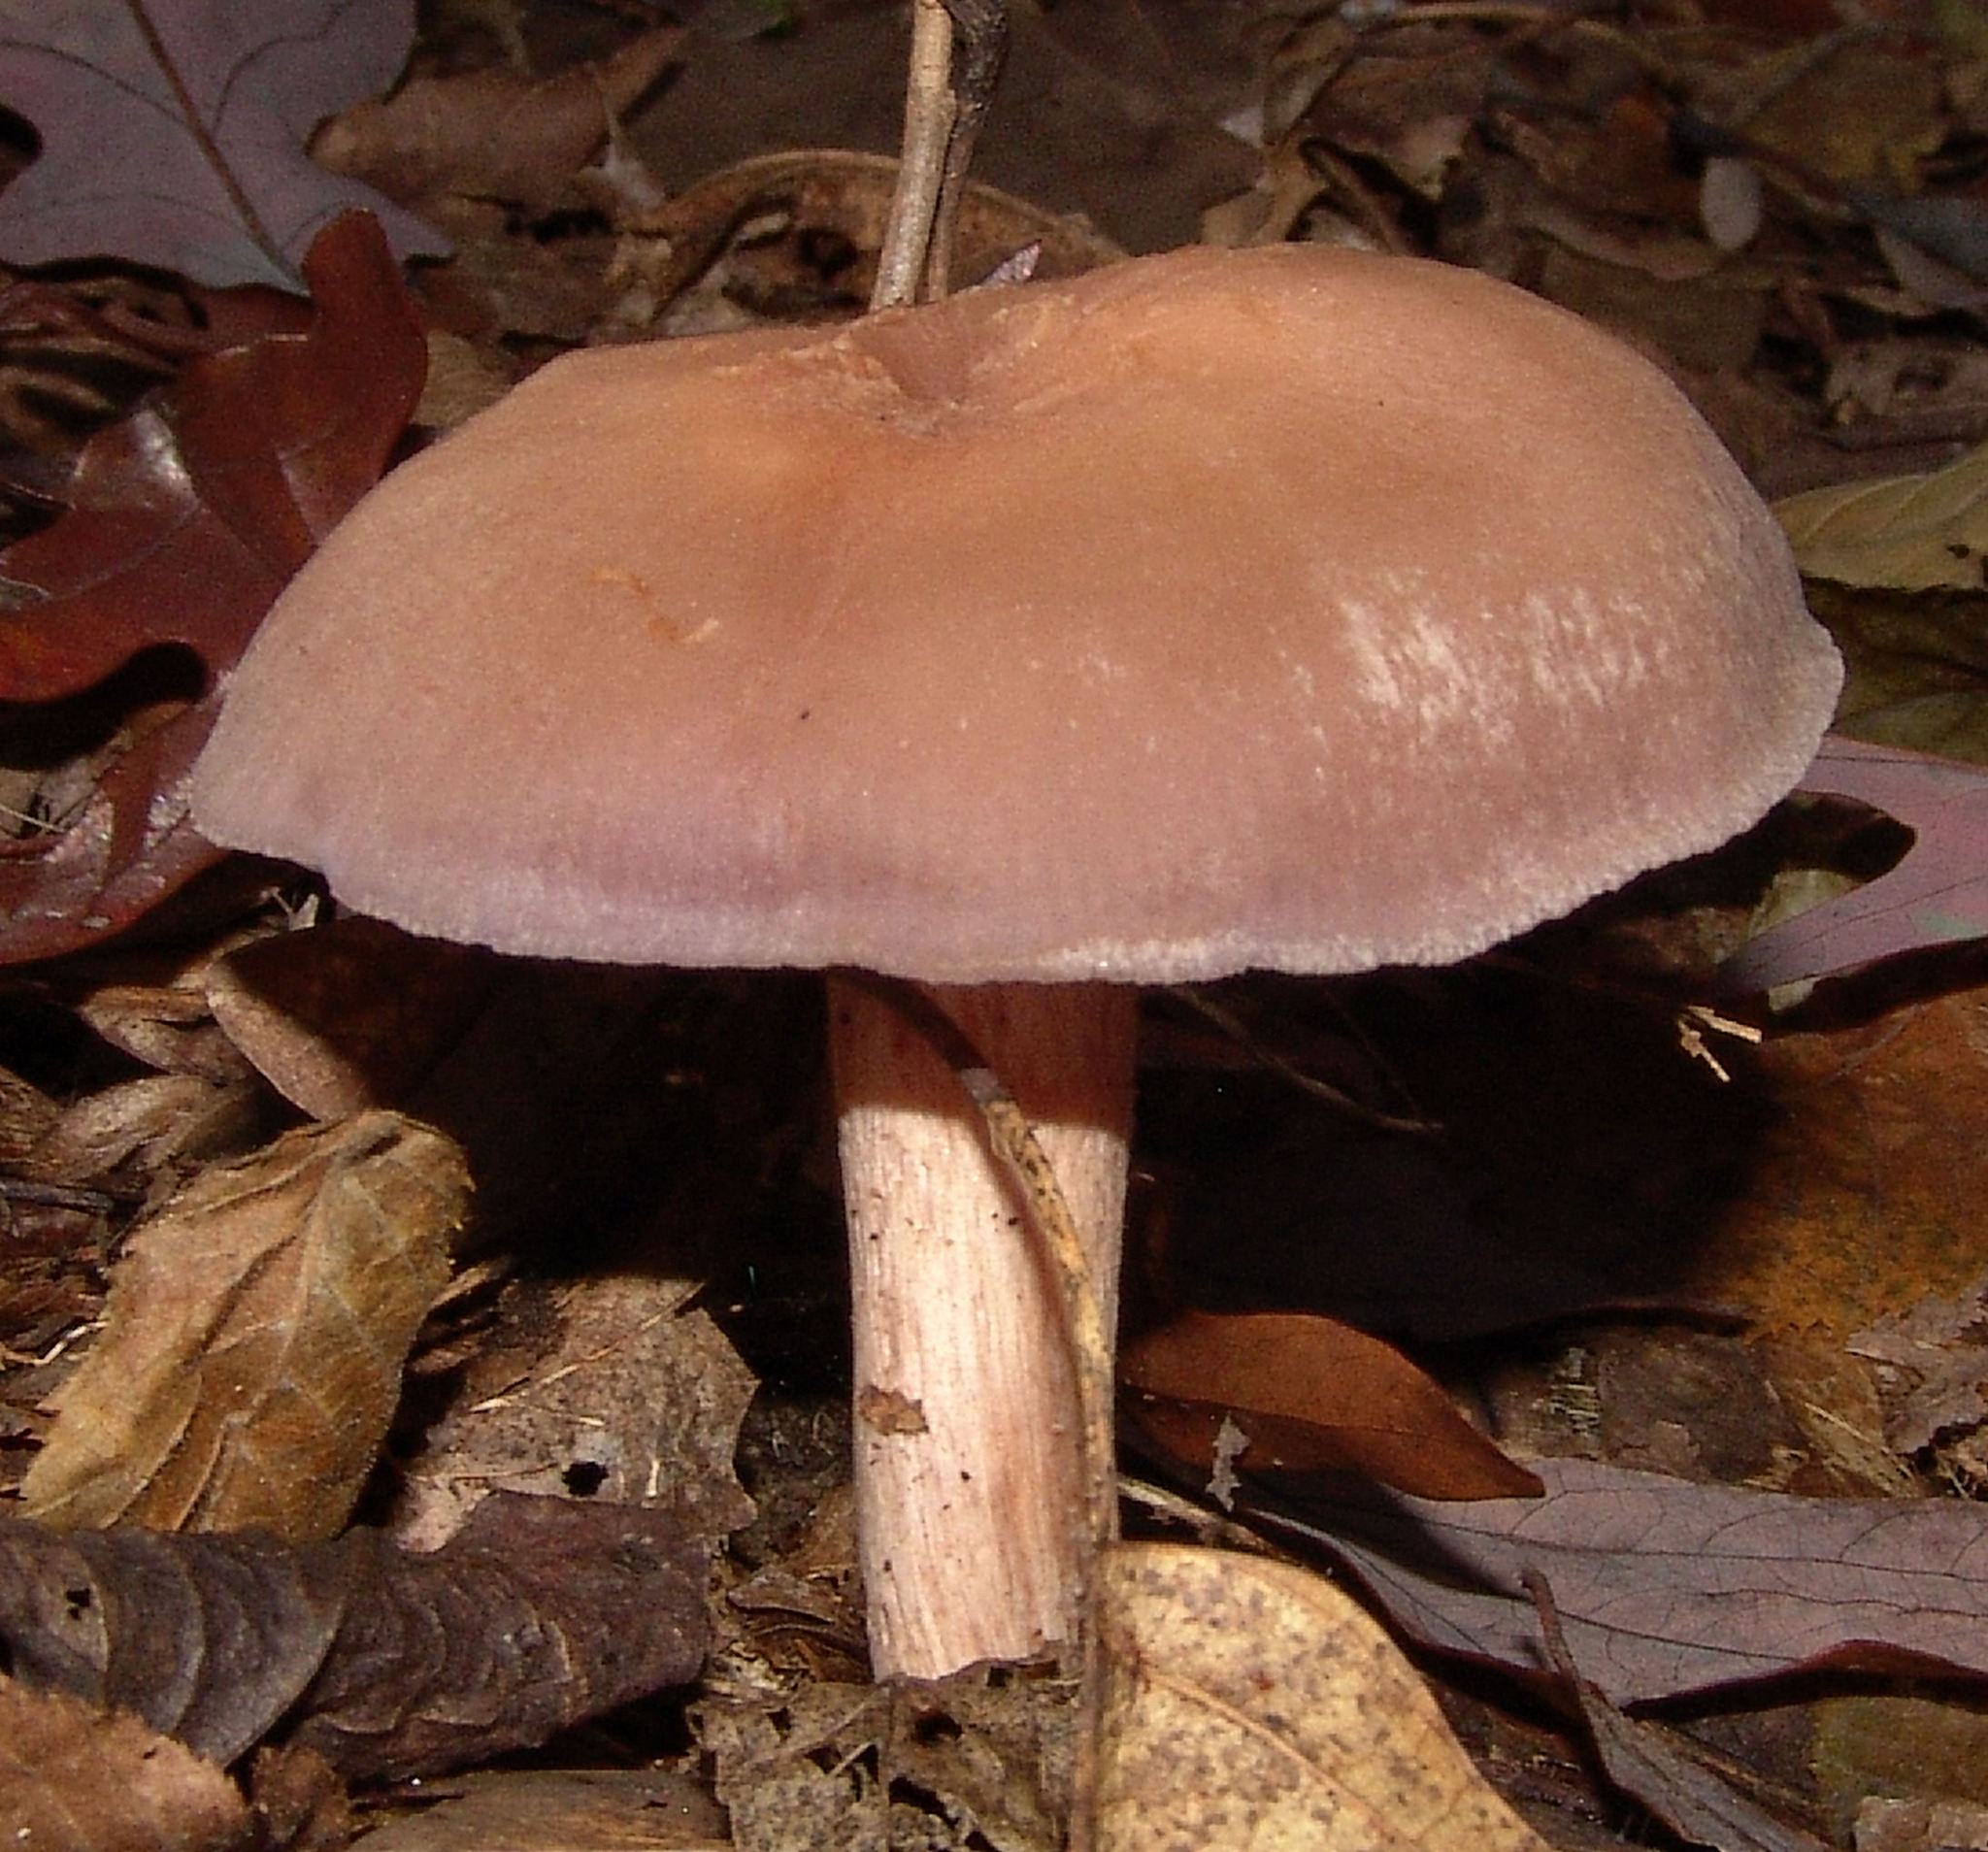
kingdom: Fungi
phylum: Basidiomycota
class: Agaricomycetes
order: Agaricales
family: Hydnangiaceae
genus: Laccaria
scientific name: Laccaria ochropurpurea
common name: Purple laccaria
